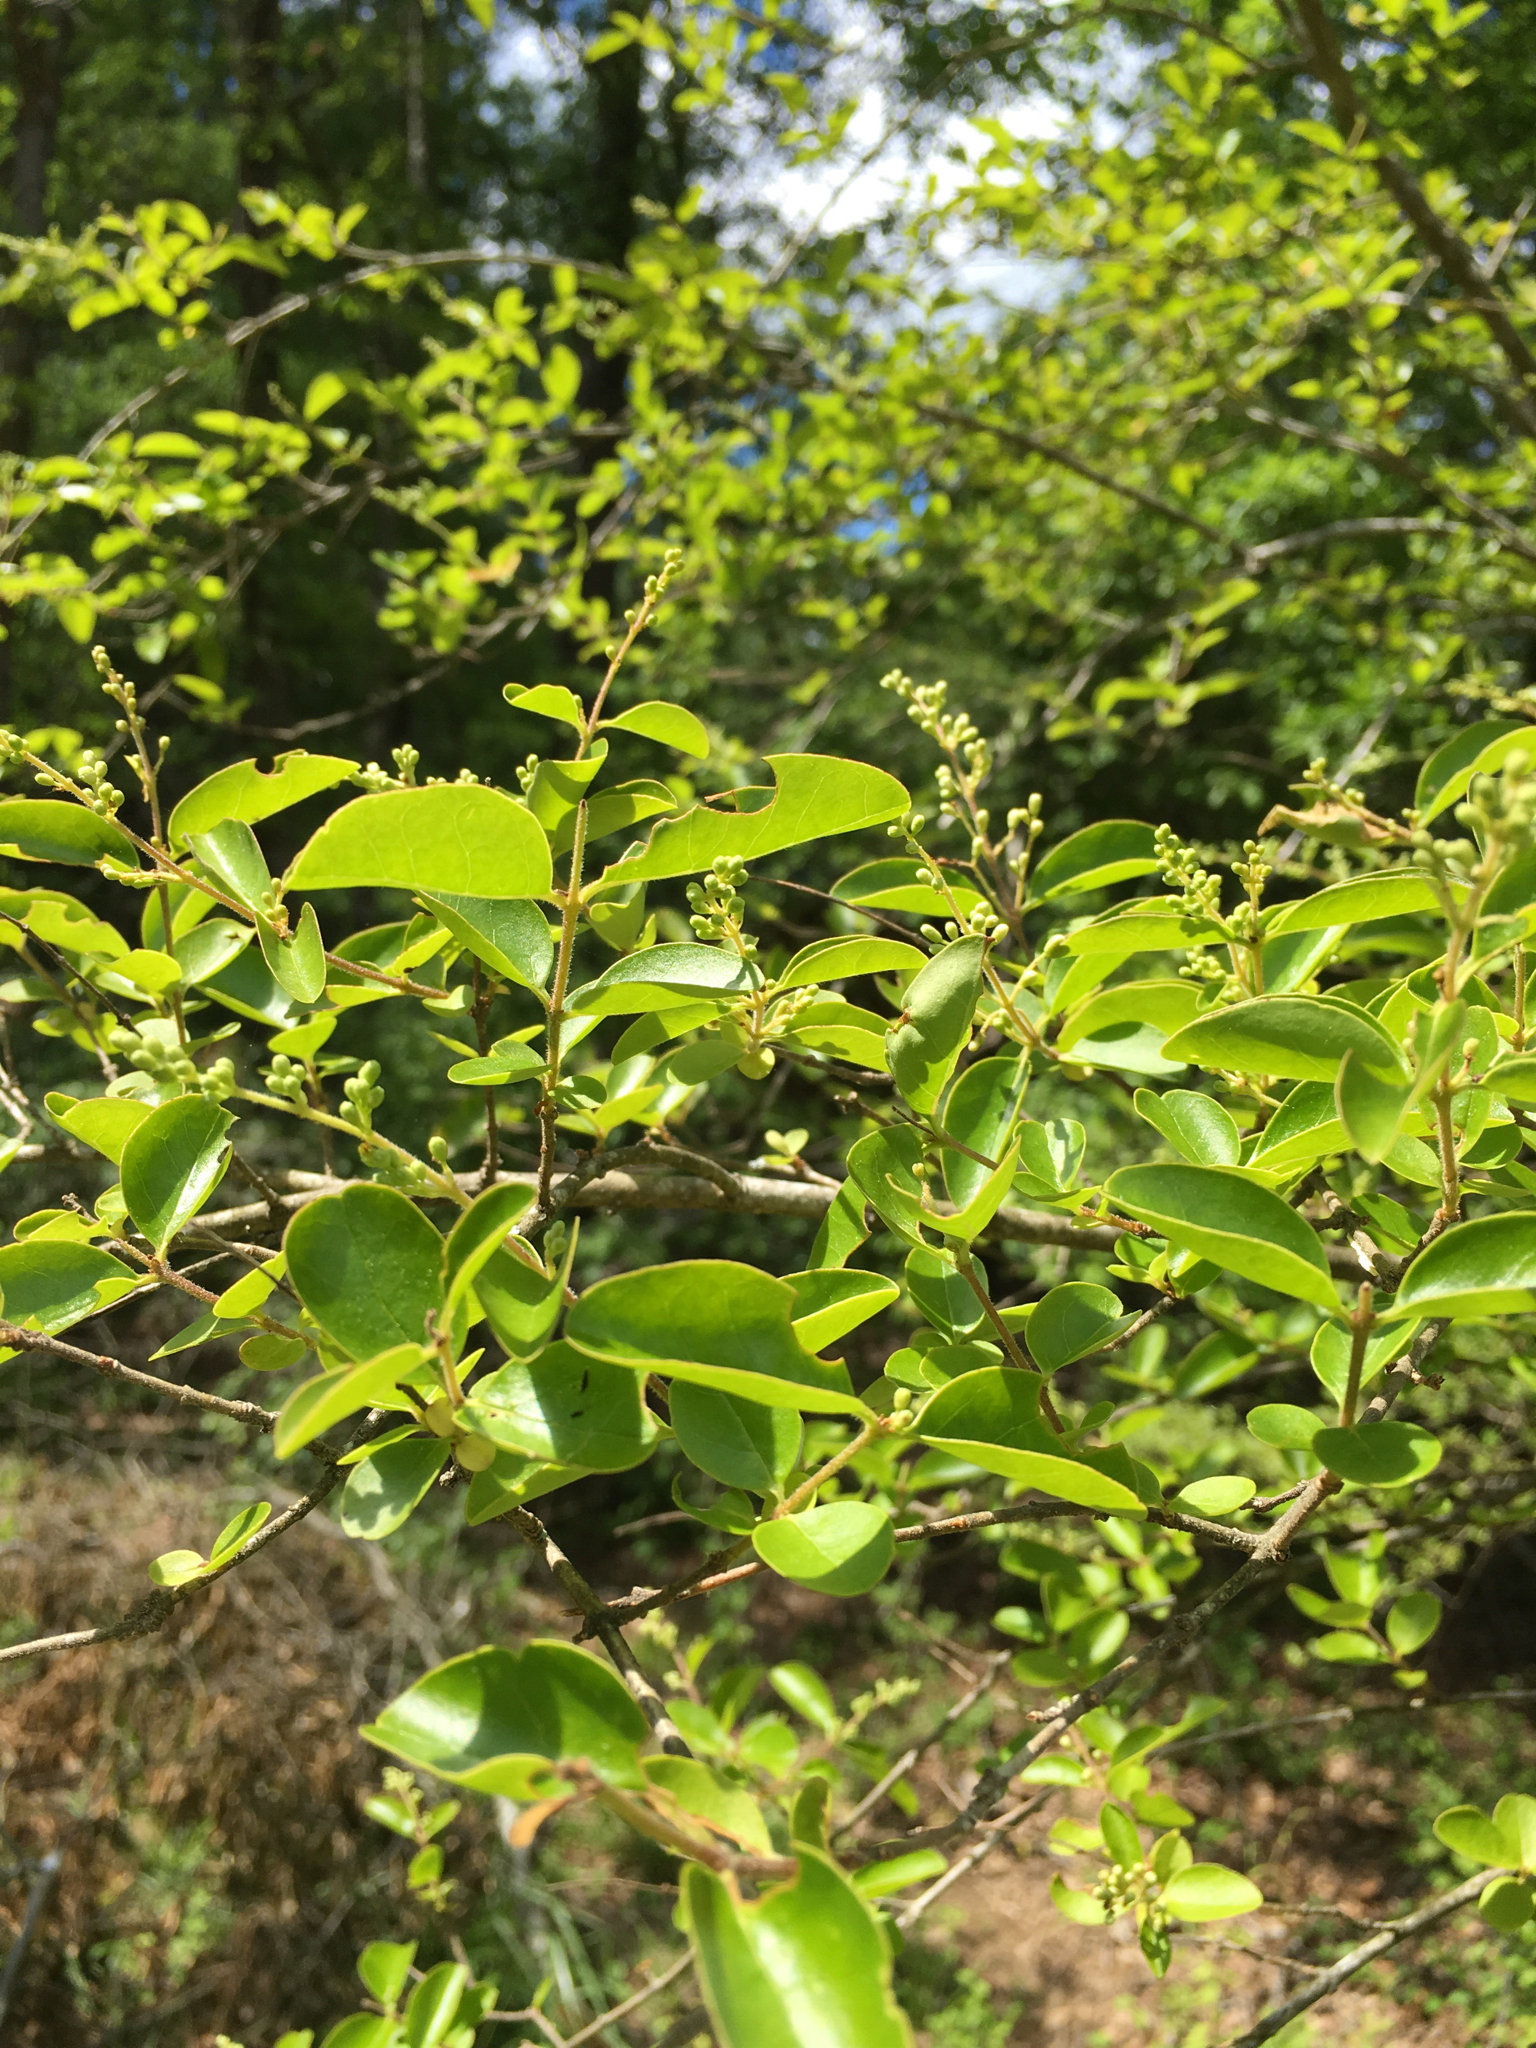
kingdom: Plantae
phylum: Tracheophyta
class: Magnoliopsida
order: Lamiales
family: Oleaceae
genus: Ligustrum
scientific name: Ligustrum sinense
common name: Chinese privet
